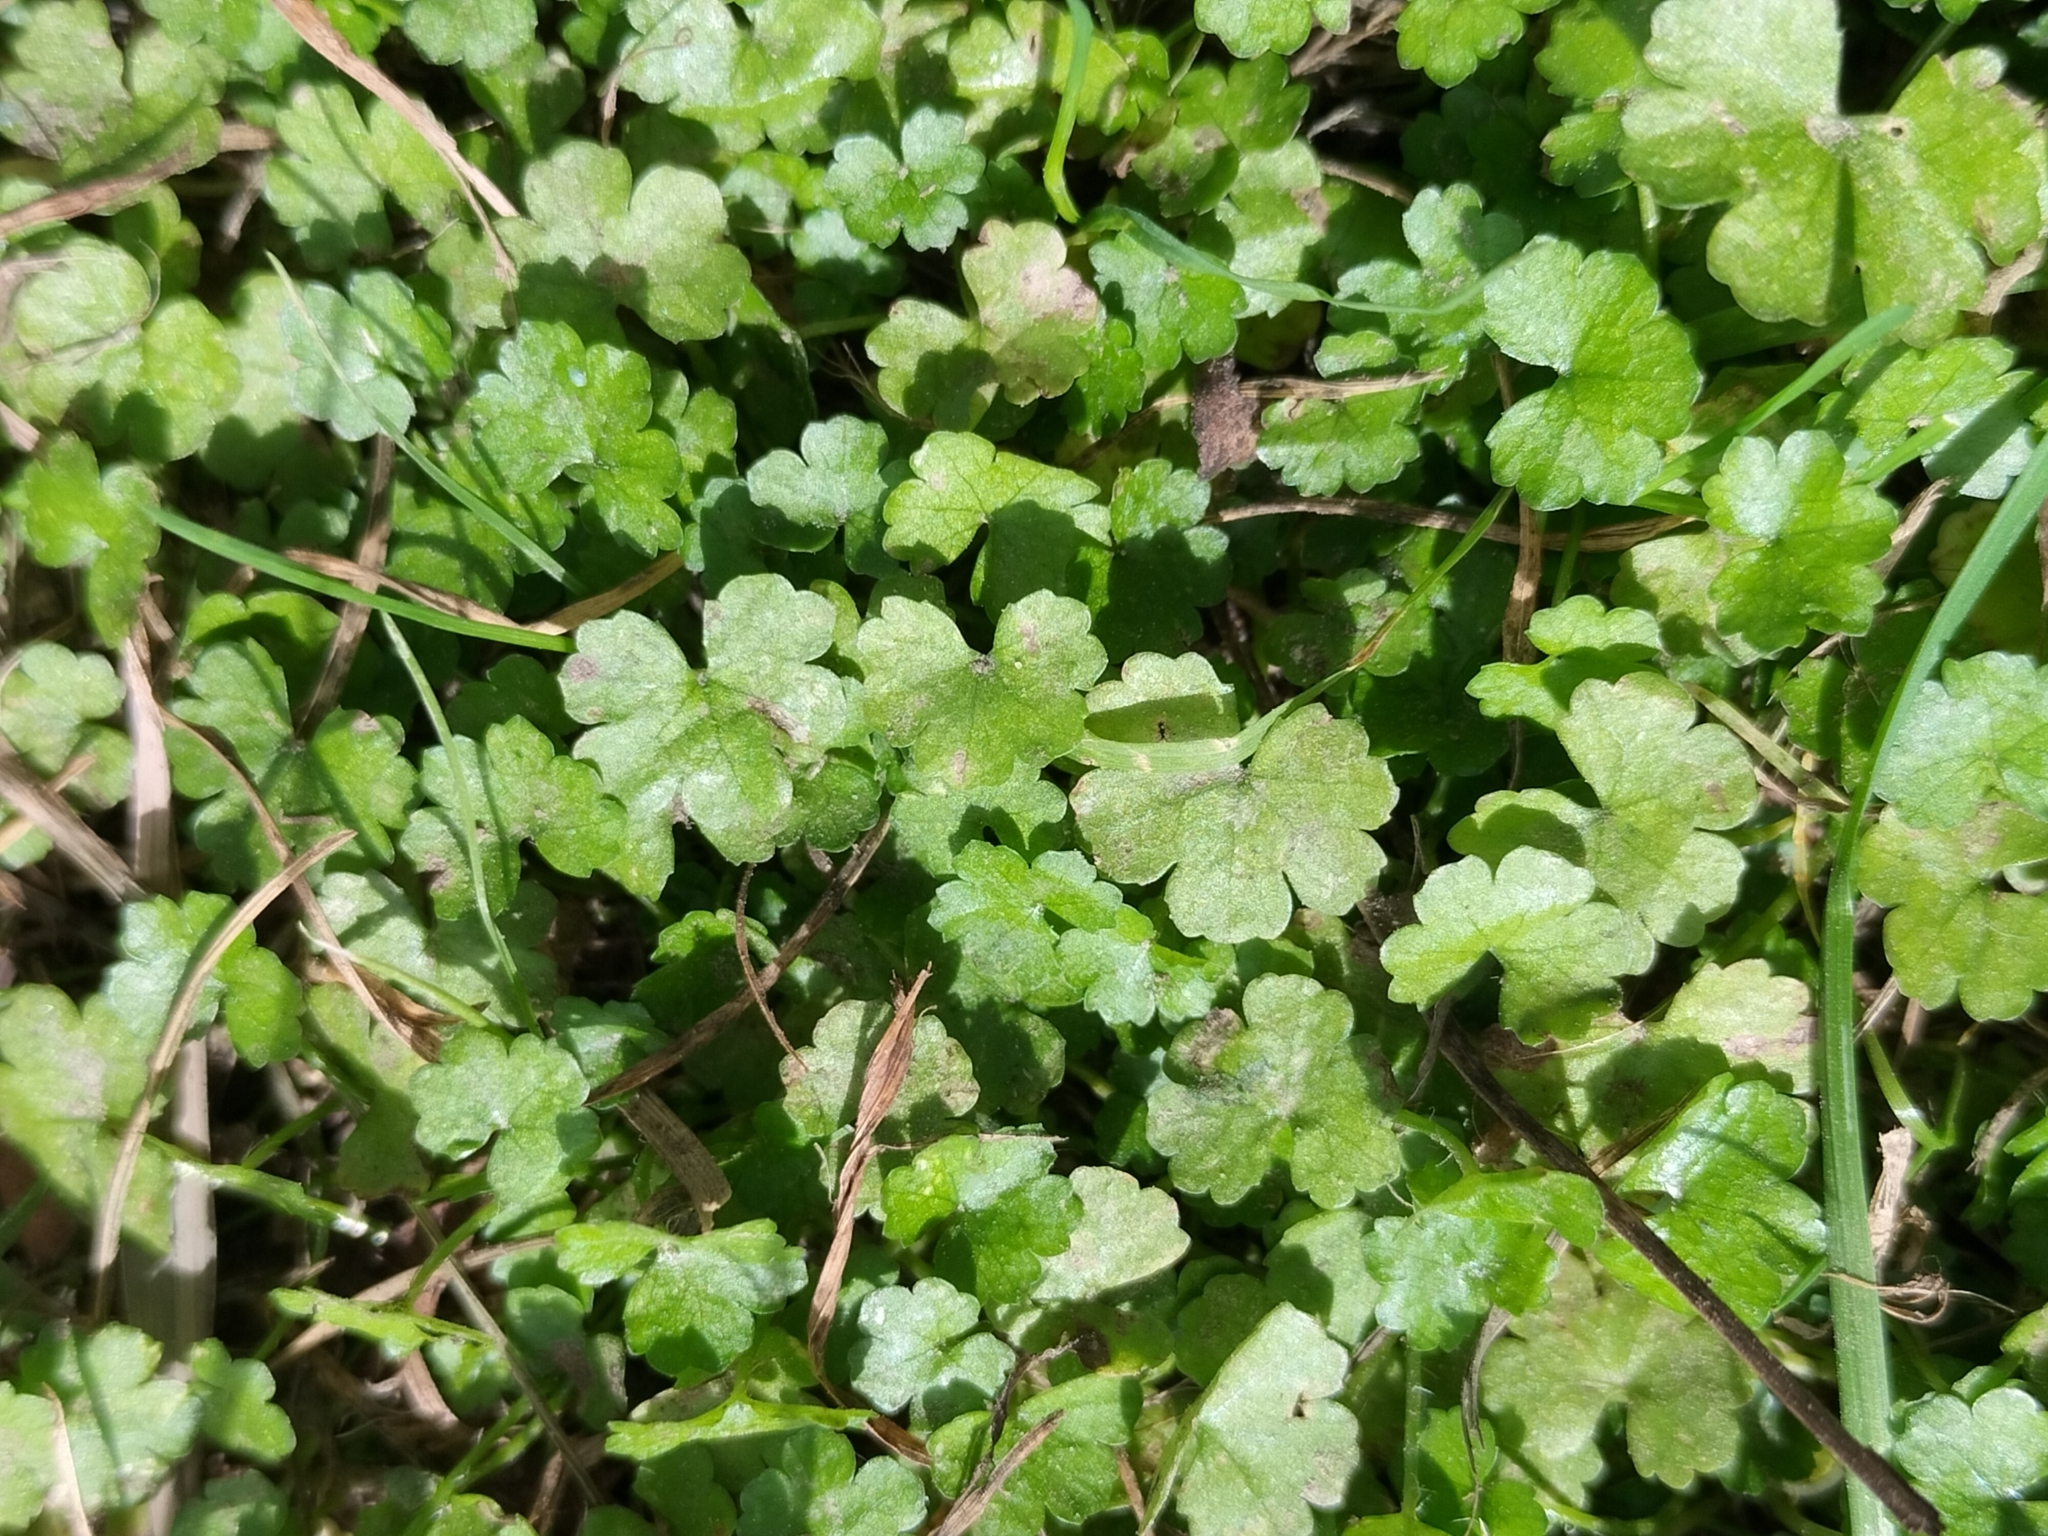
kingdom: Plantae
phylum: Tracheophyta
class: Magnoliopsida
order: Apiales
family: Araliaceae
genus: Hydrocotyle
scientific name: Hydrocotyle heteromeria
